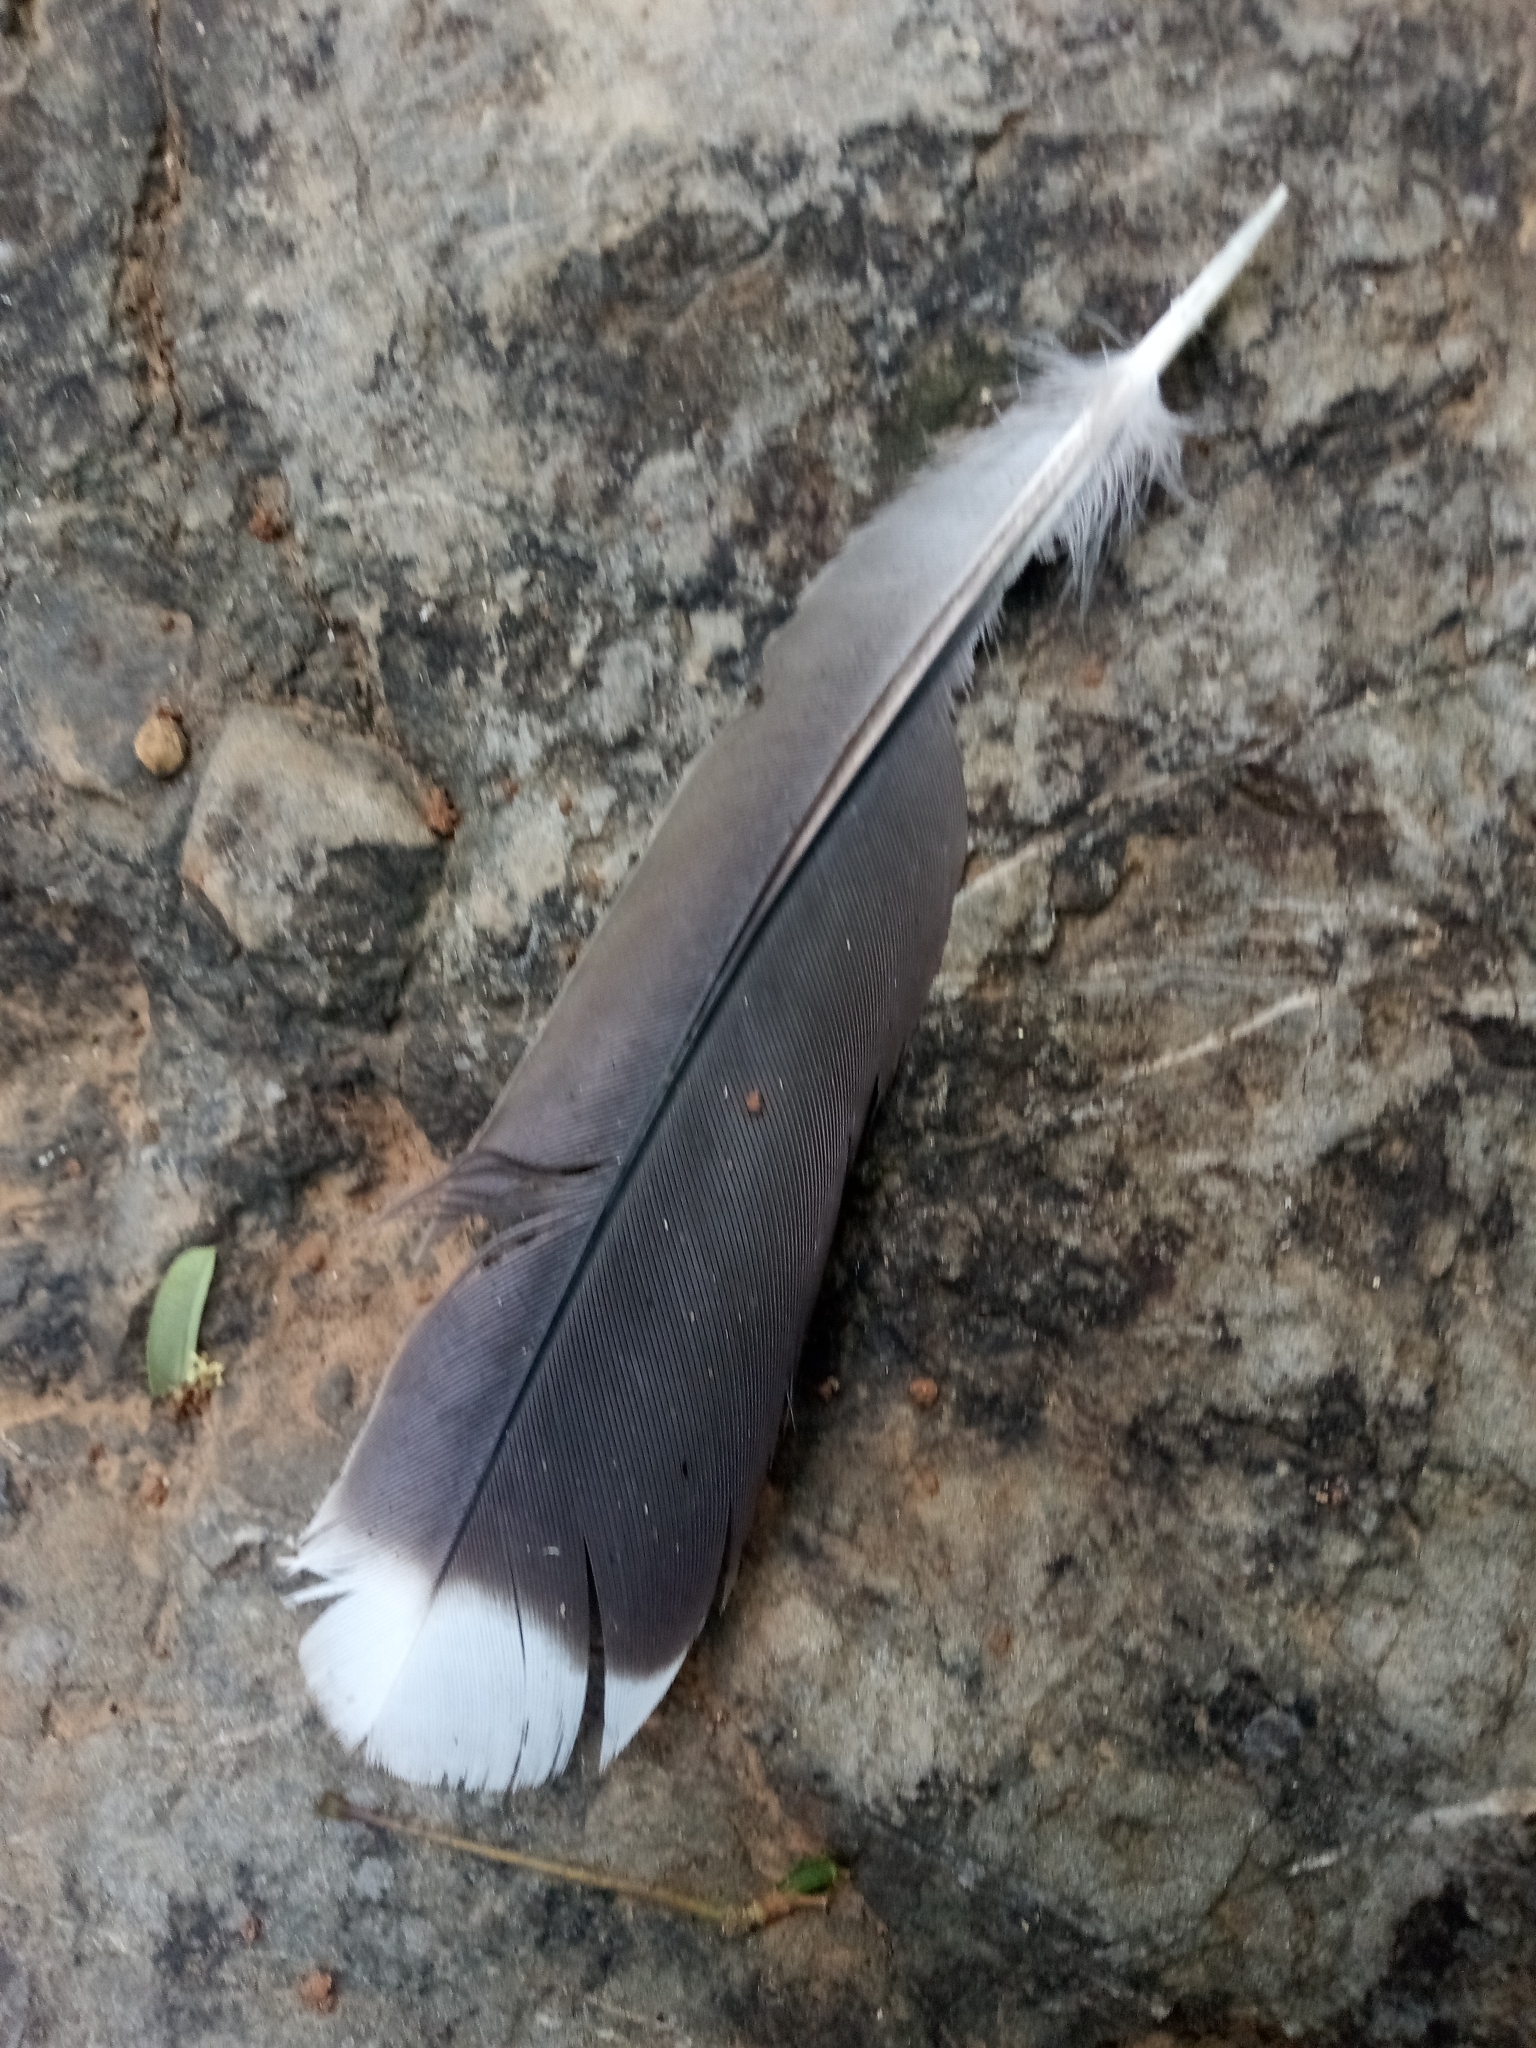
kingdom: Animalia
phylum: Chordata
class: Aves
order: Columbiformes
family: Columbidae
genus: Leptotila
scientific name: Leptotila verreauxi
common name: White-tipped dove
